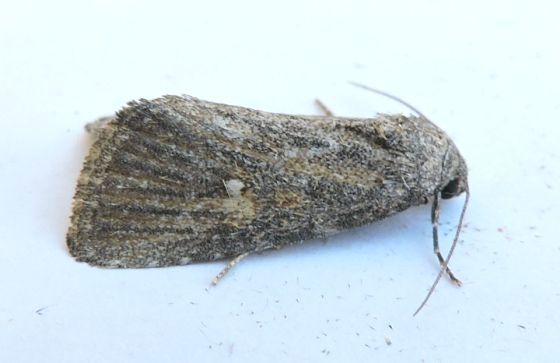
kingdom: Animalia
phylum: Arthropoda
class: Insecta
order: Lepidoptera
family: Noctuidae
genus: Condica
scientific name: Condica begallo
